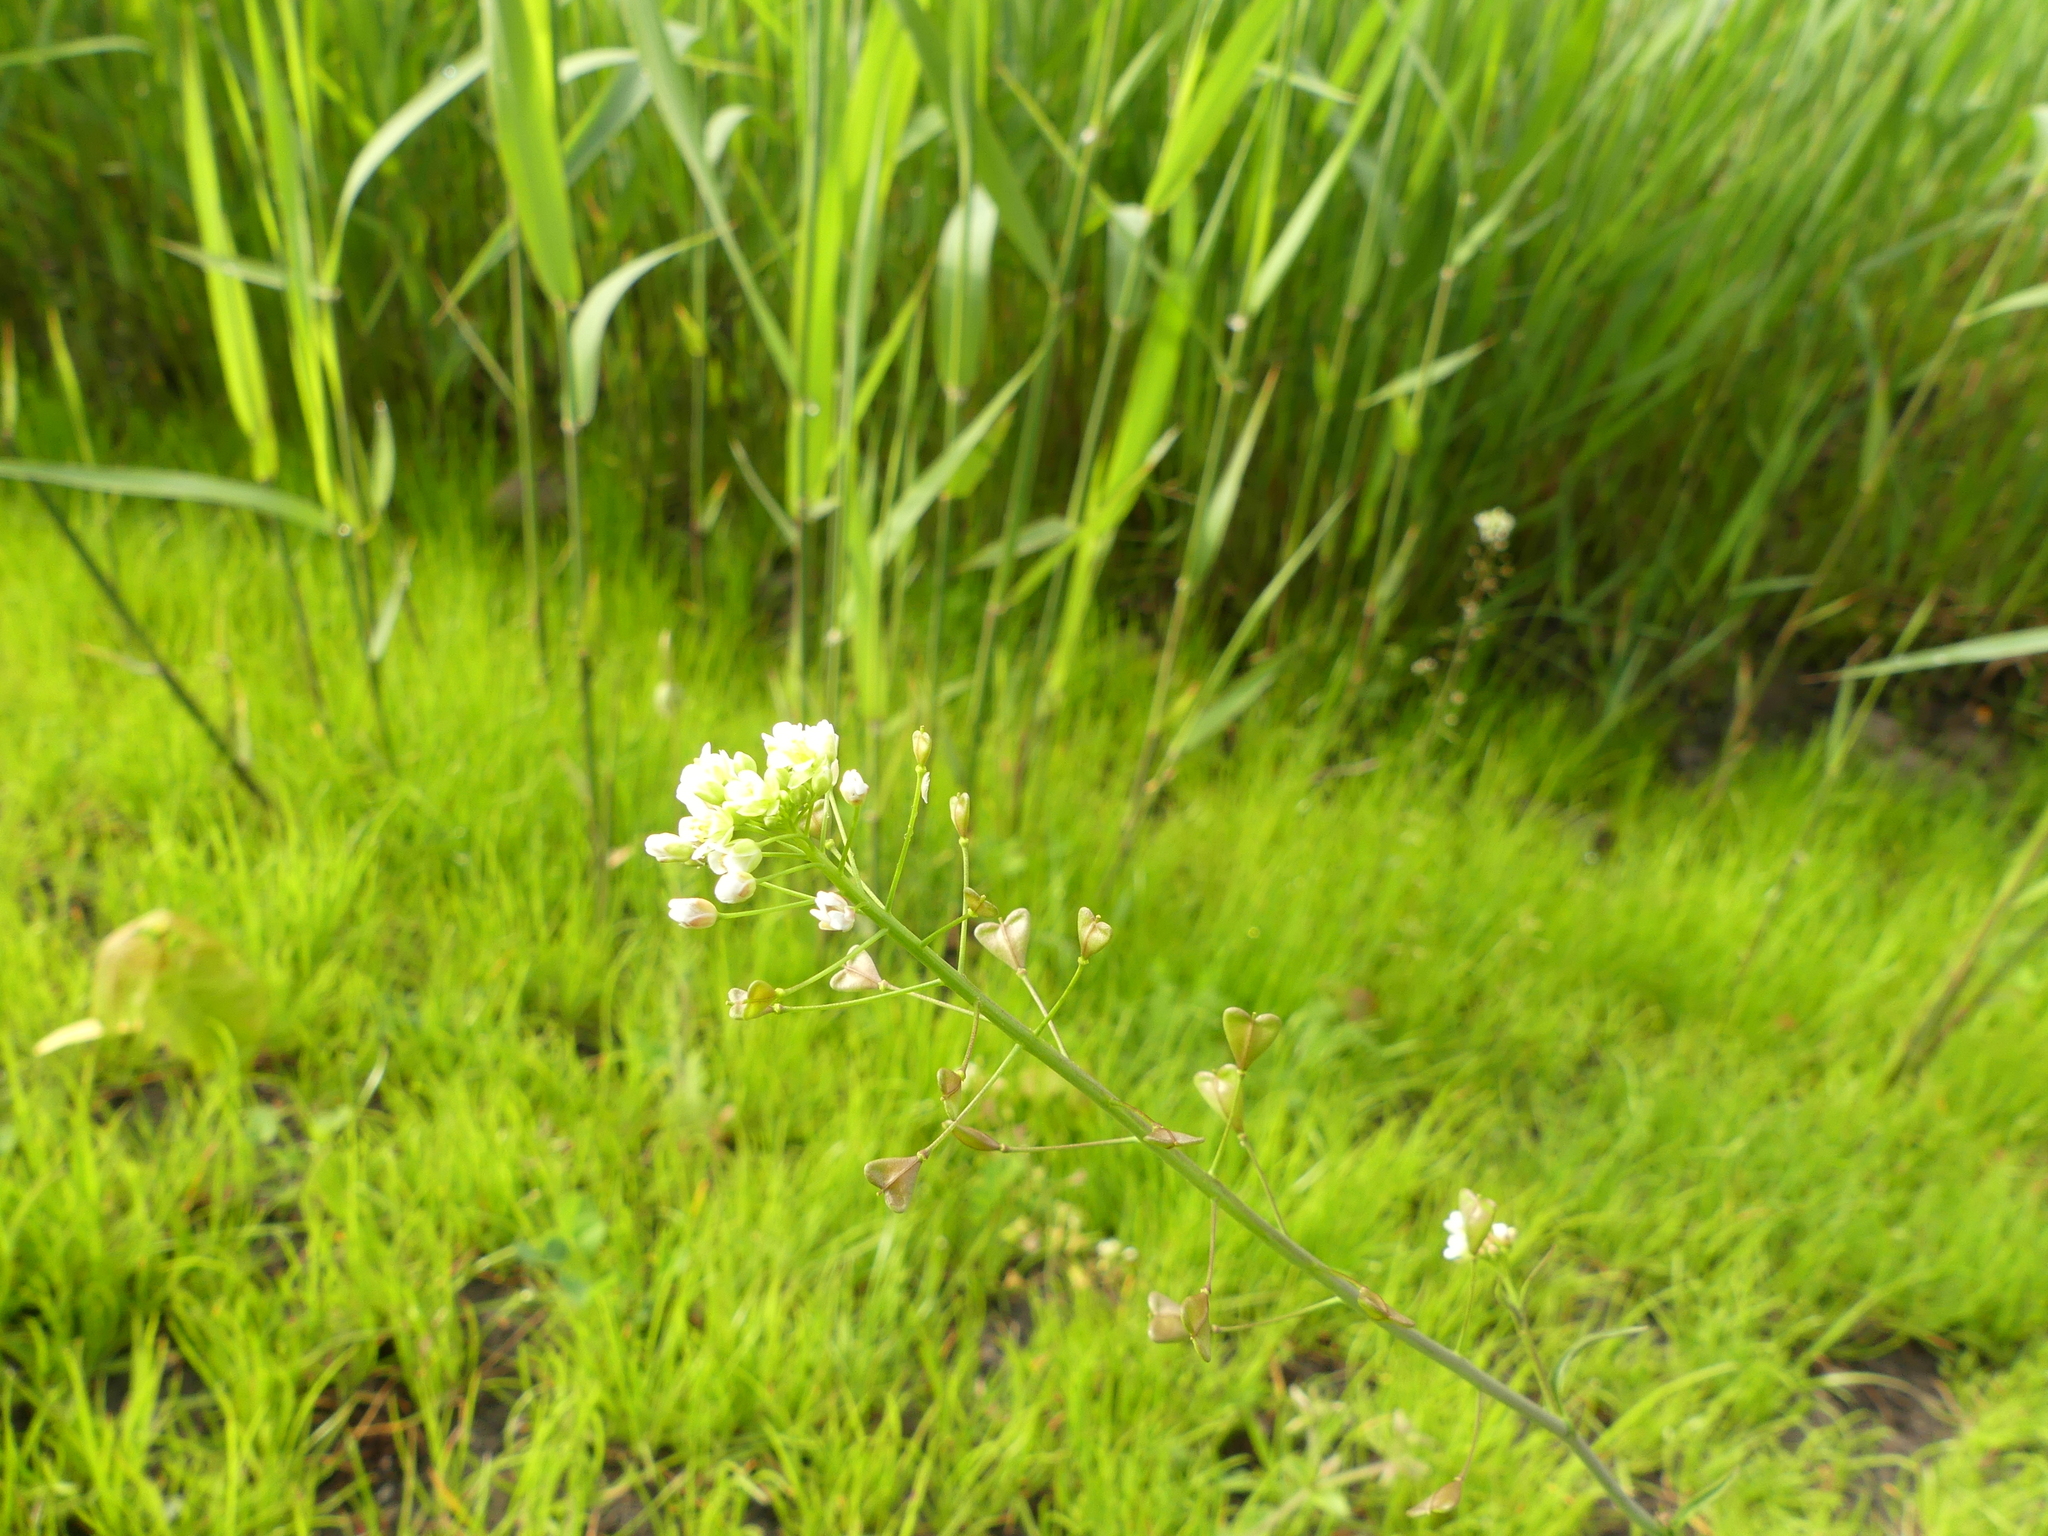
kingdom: Plantae
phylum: Tracheophyta
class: Magnoliopsida
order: Brassicales
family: Brassicaceae
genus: Capsella
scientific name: Capsella bursa-pastoris
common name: Shepherd's purse
